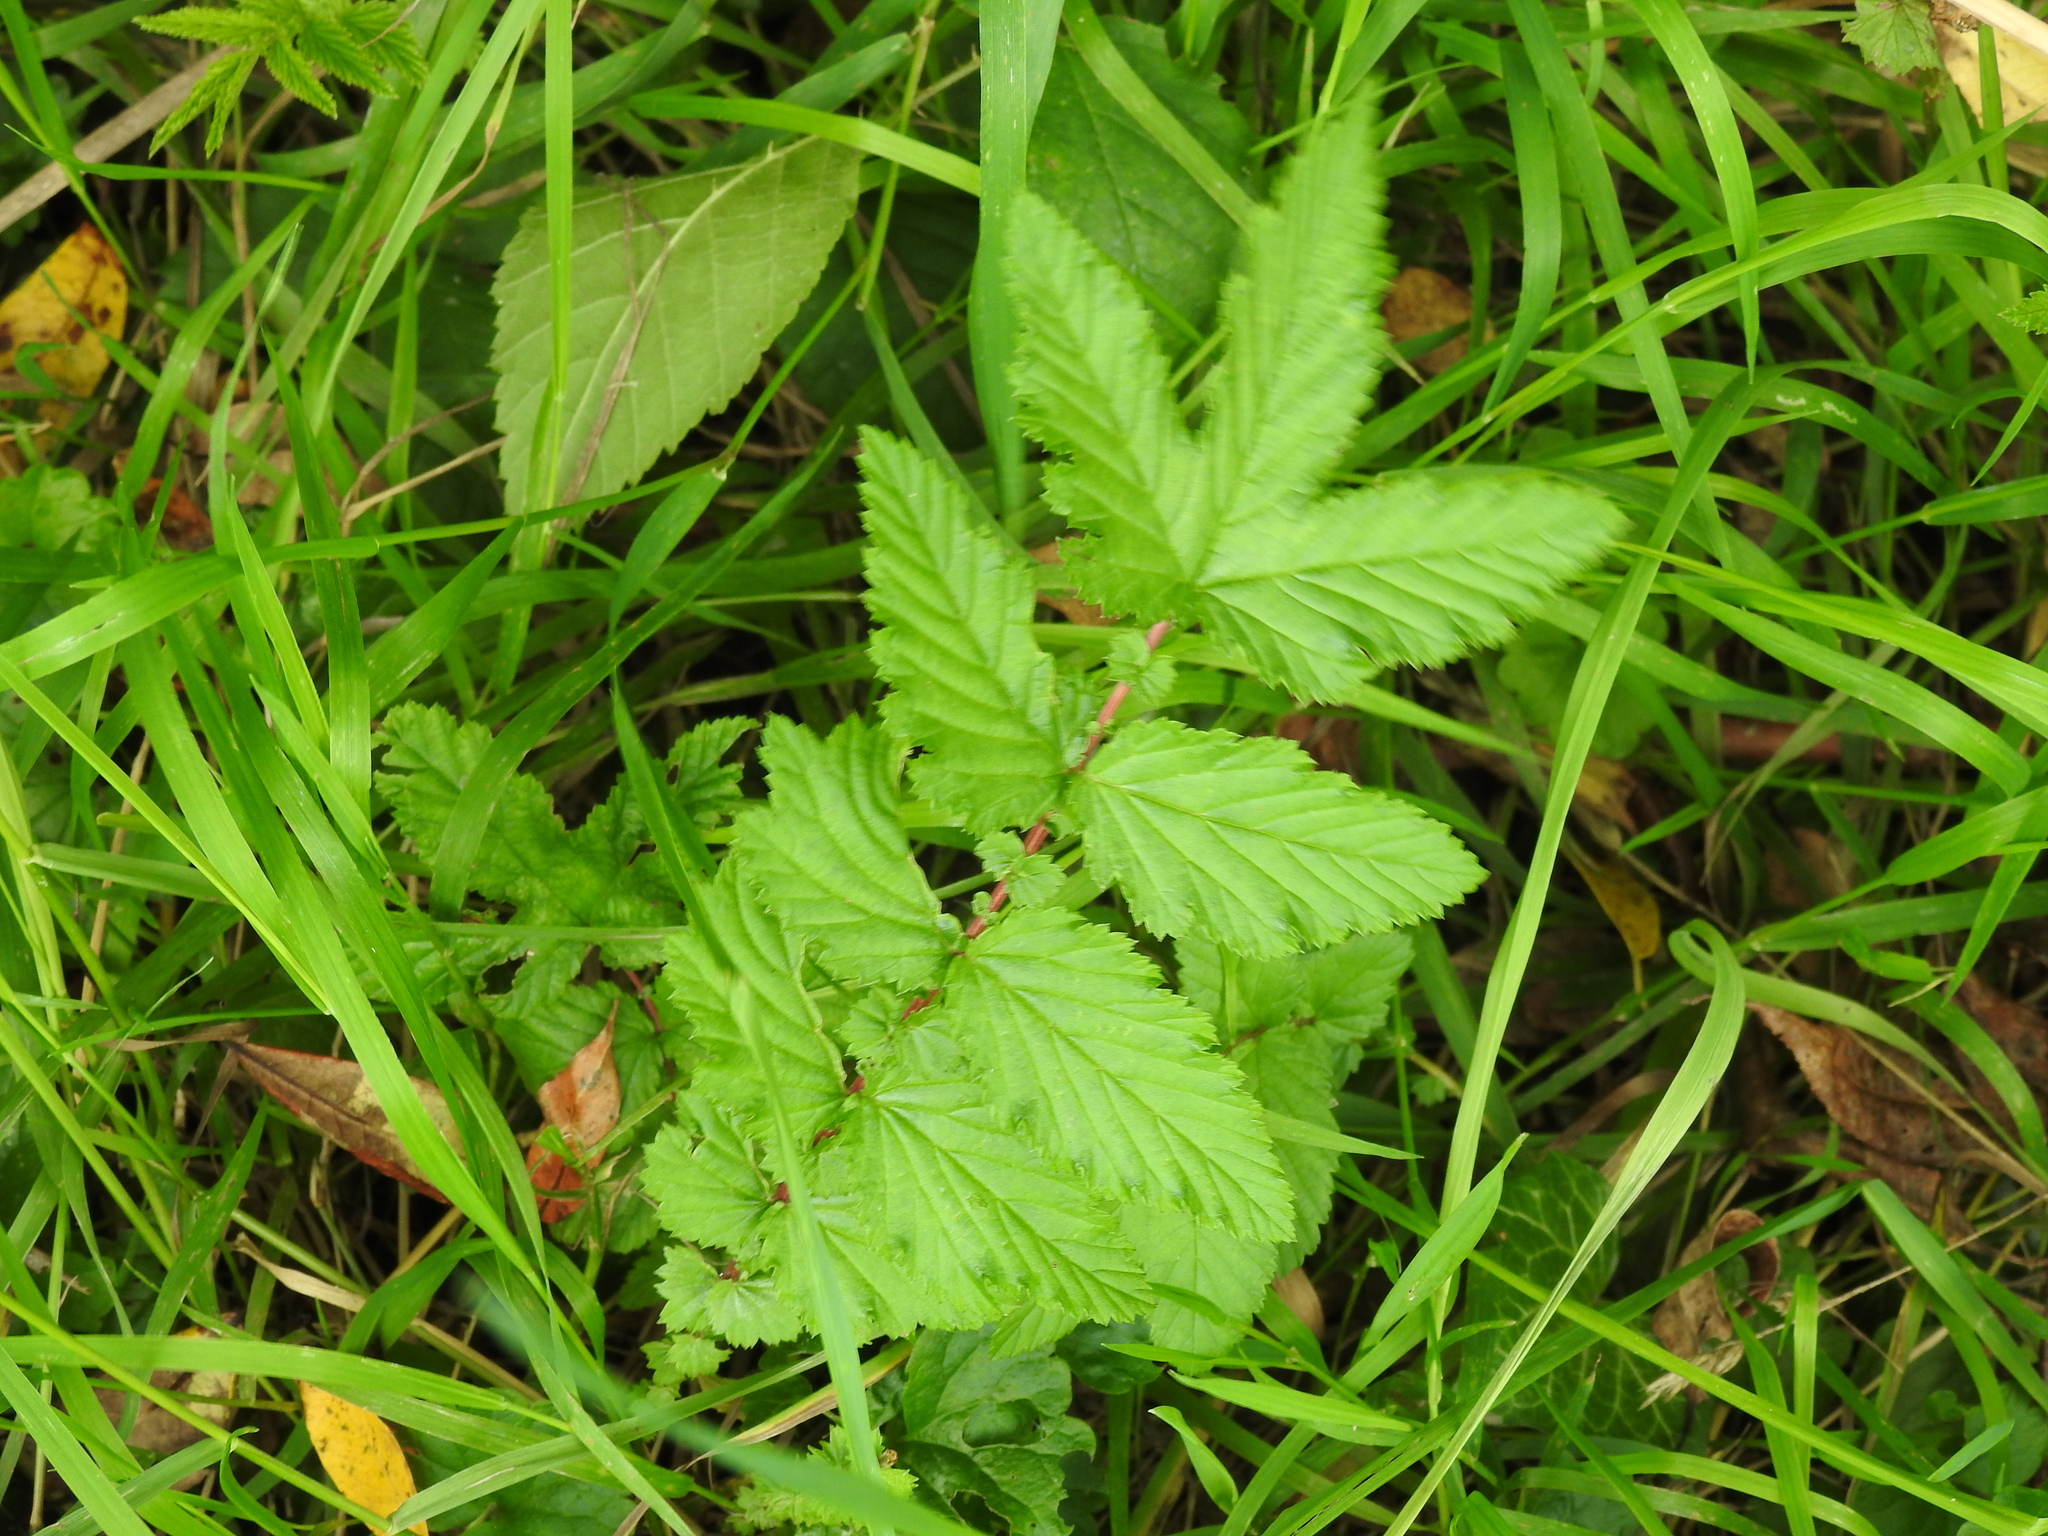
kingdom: Plantae
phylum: Tracheophyta
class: Magnoliopsida
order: Rosales
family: Rosaceae
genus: Filipendula
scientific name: Filipendula ulmaria
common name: Meadowsweet
